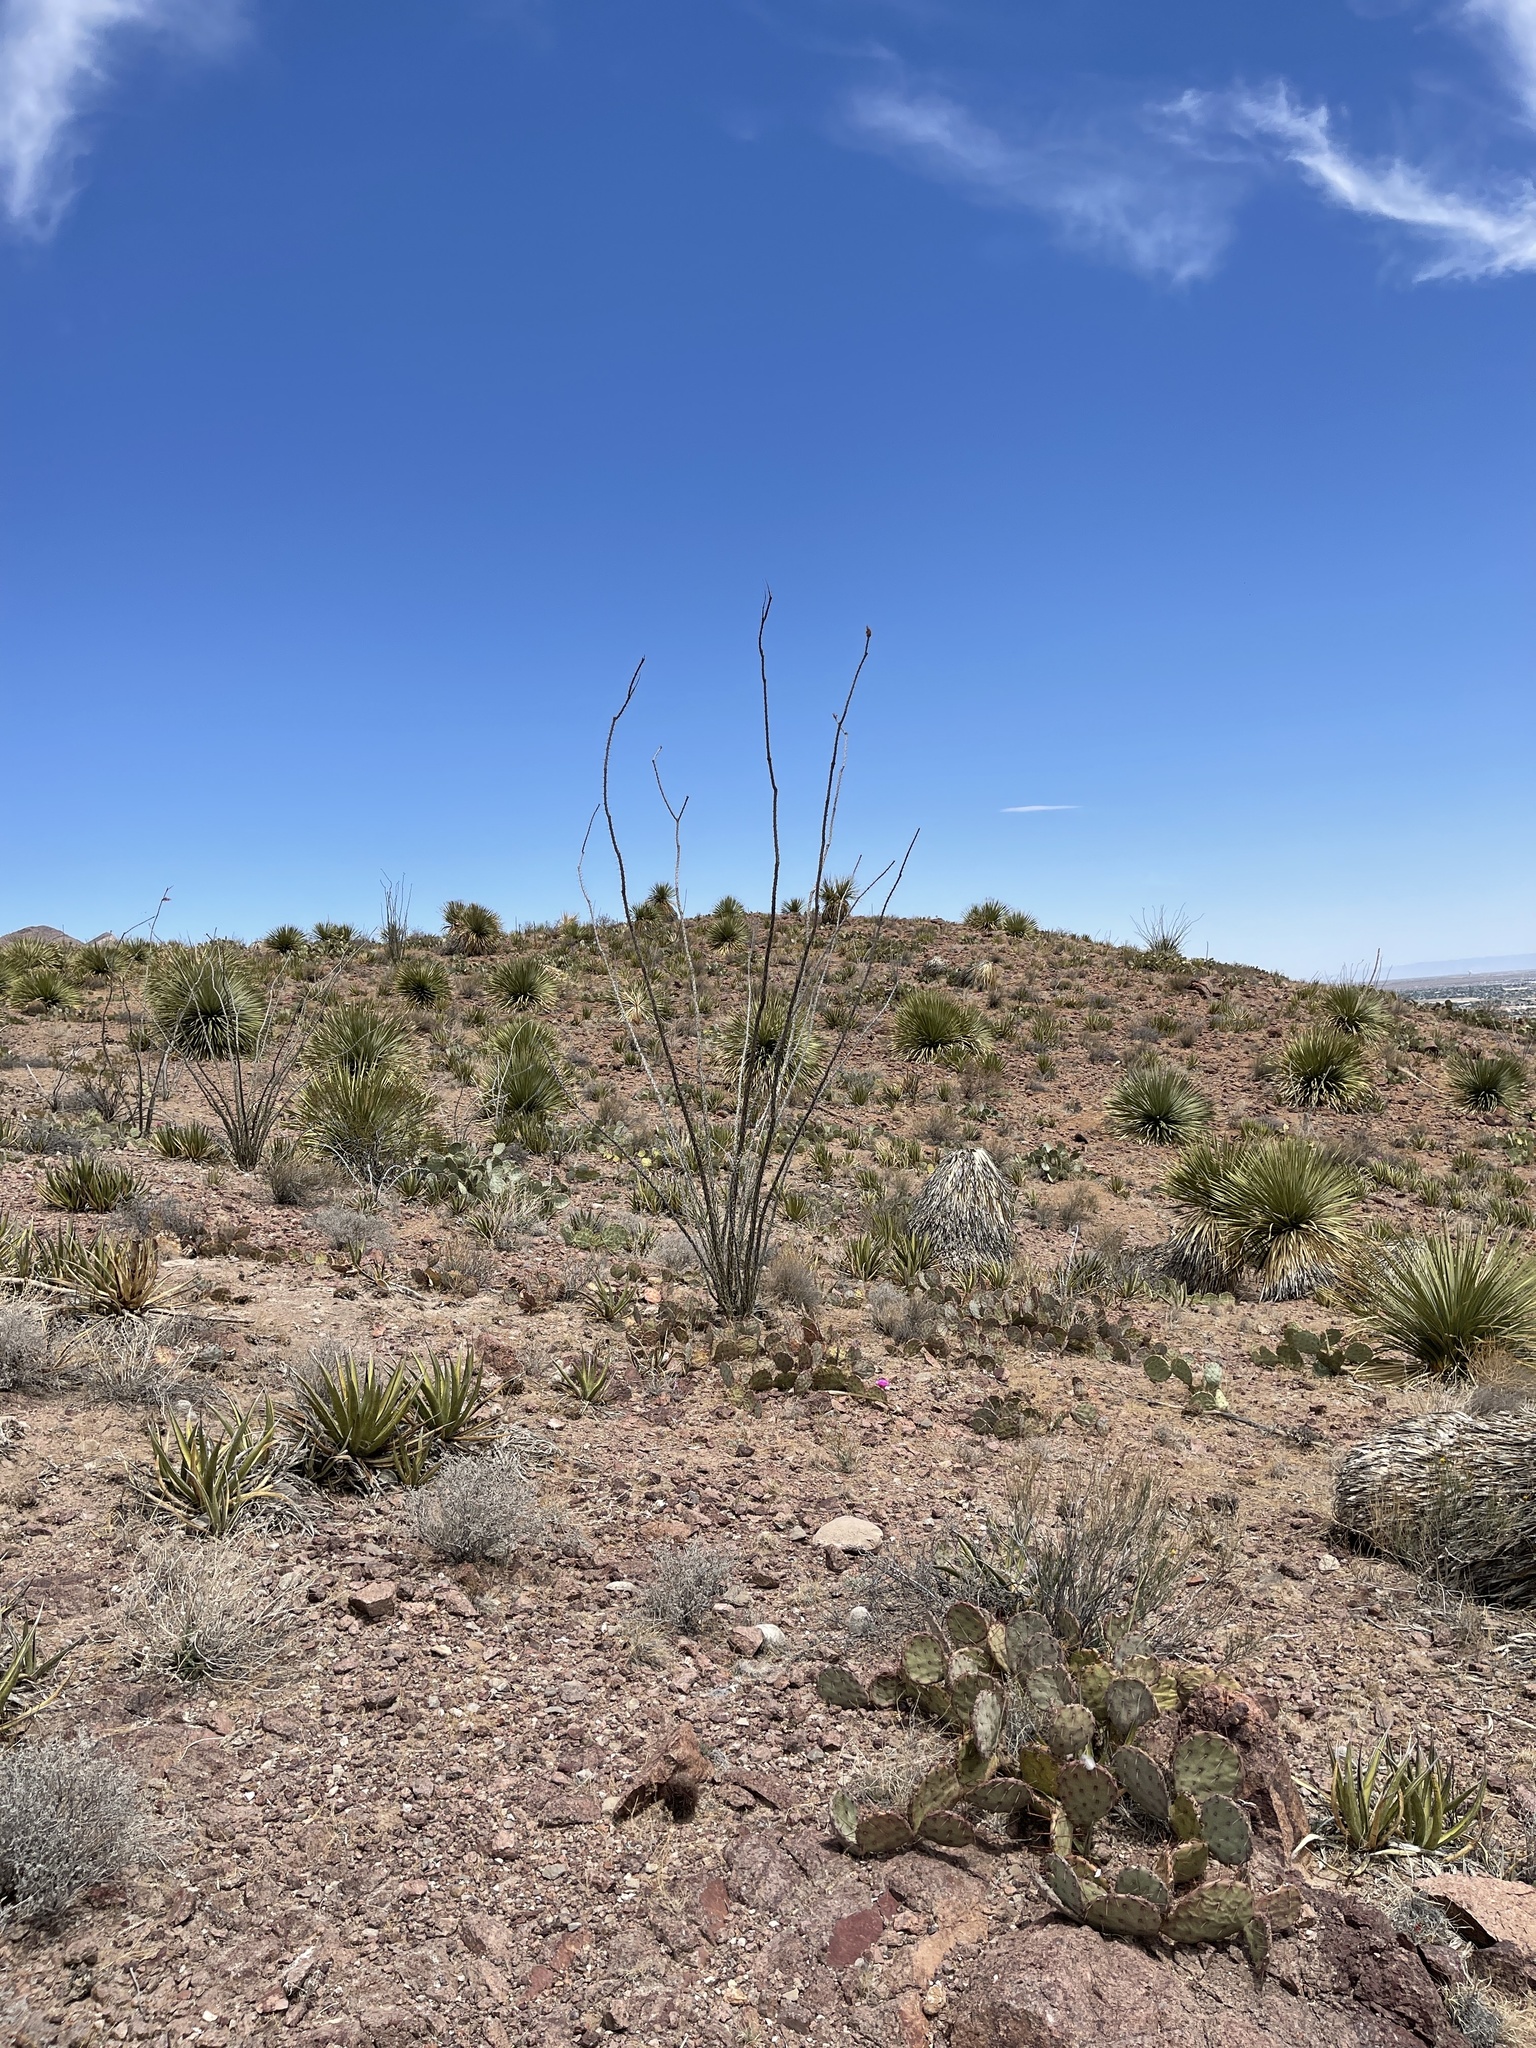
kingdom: Plantae
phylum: Tracheophyta
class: Magnoliopsida
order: Ericales
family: Fouquieriaceae
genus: Fouquieria
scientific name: Fouquieria splendens
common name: Vine-cactus
